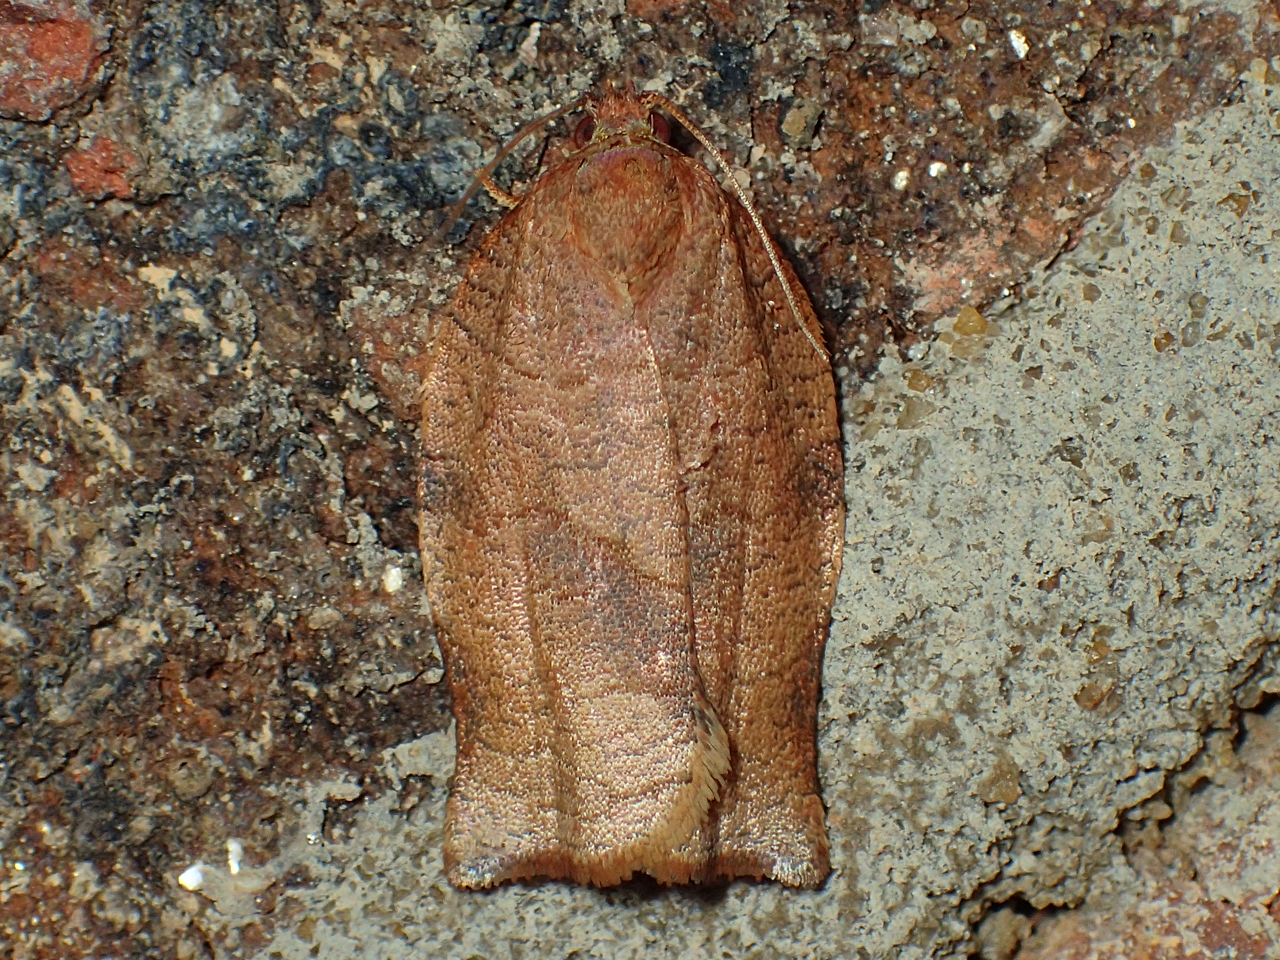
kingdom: Animalia
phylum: Arthropoda
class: Insecta
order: Lepidoptera
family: Tortricidae
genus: Choristoneura
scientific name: Choristoneura rosaceana
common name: Oblique-banded leafroller moth
